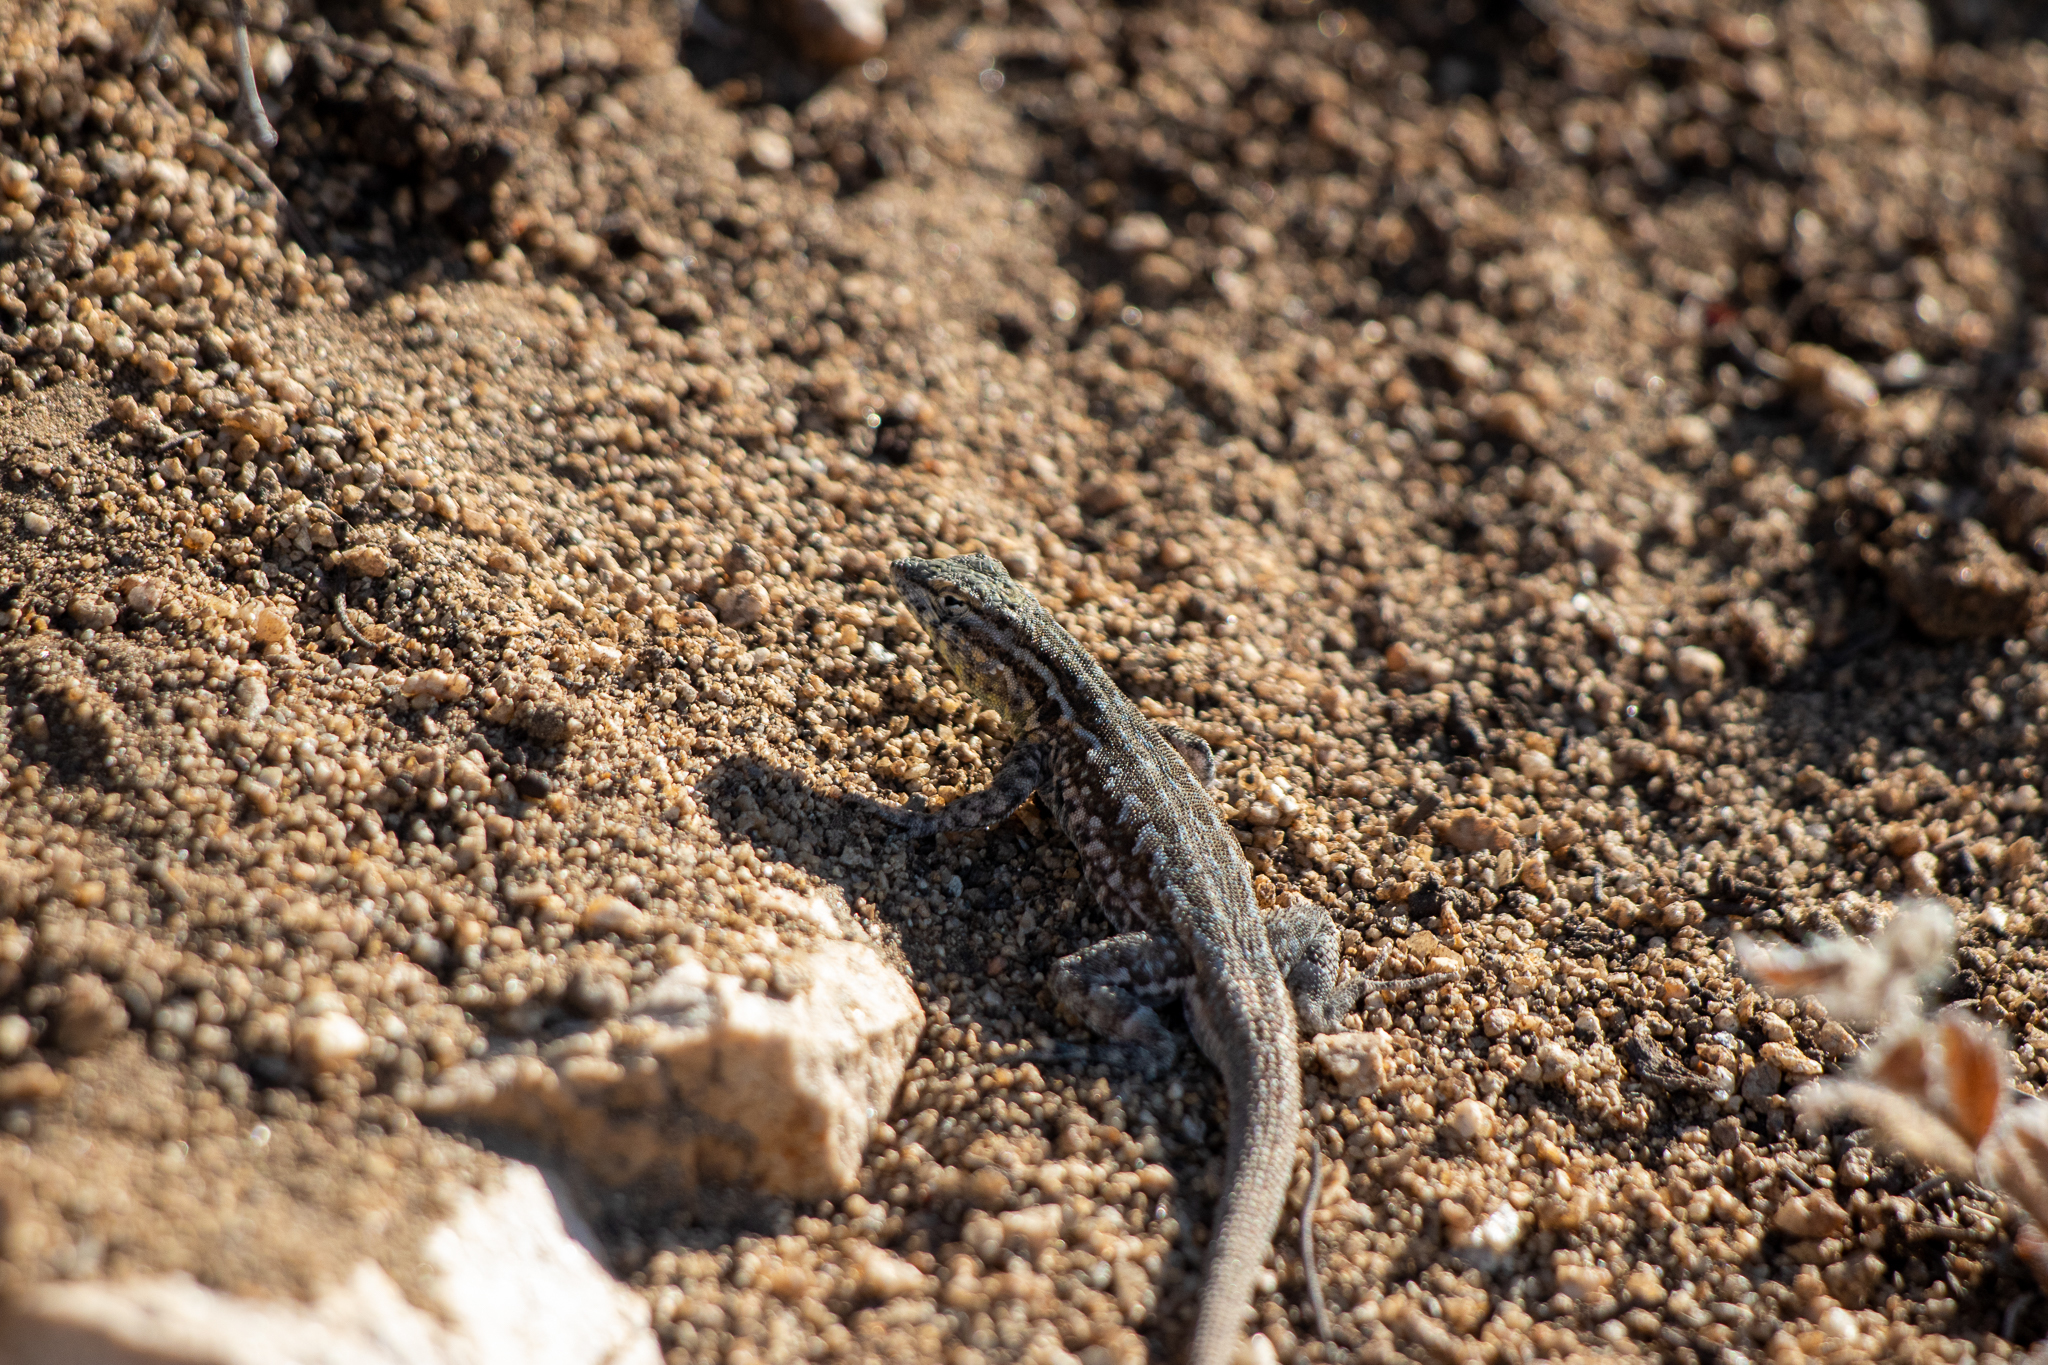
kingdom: Animalia
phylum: Chordata
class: Squamata
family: Phrynosomatidae
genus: Uta
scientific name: Uta stansburiana
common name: Side-blotched lizard
